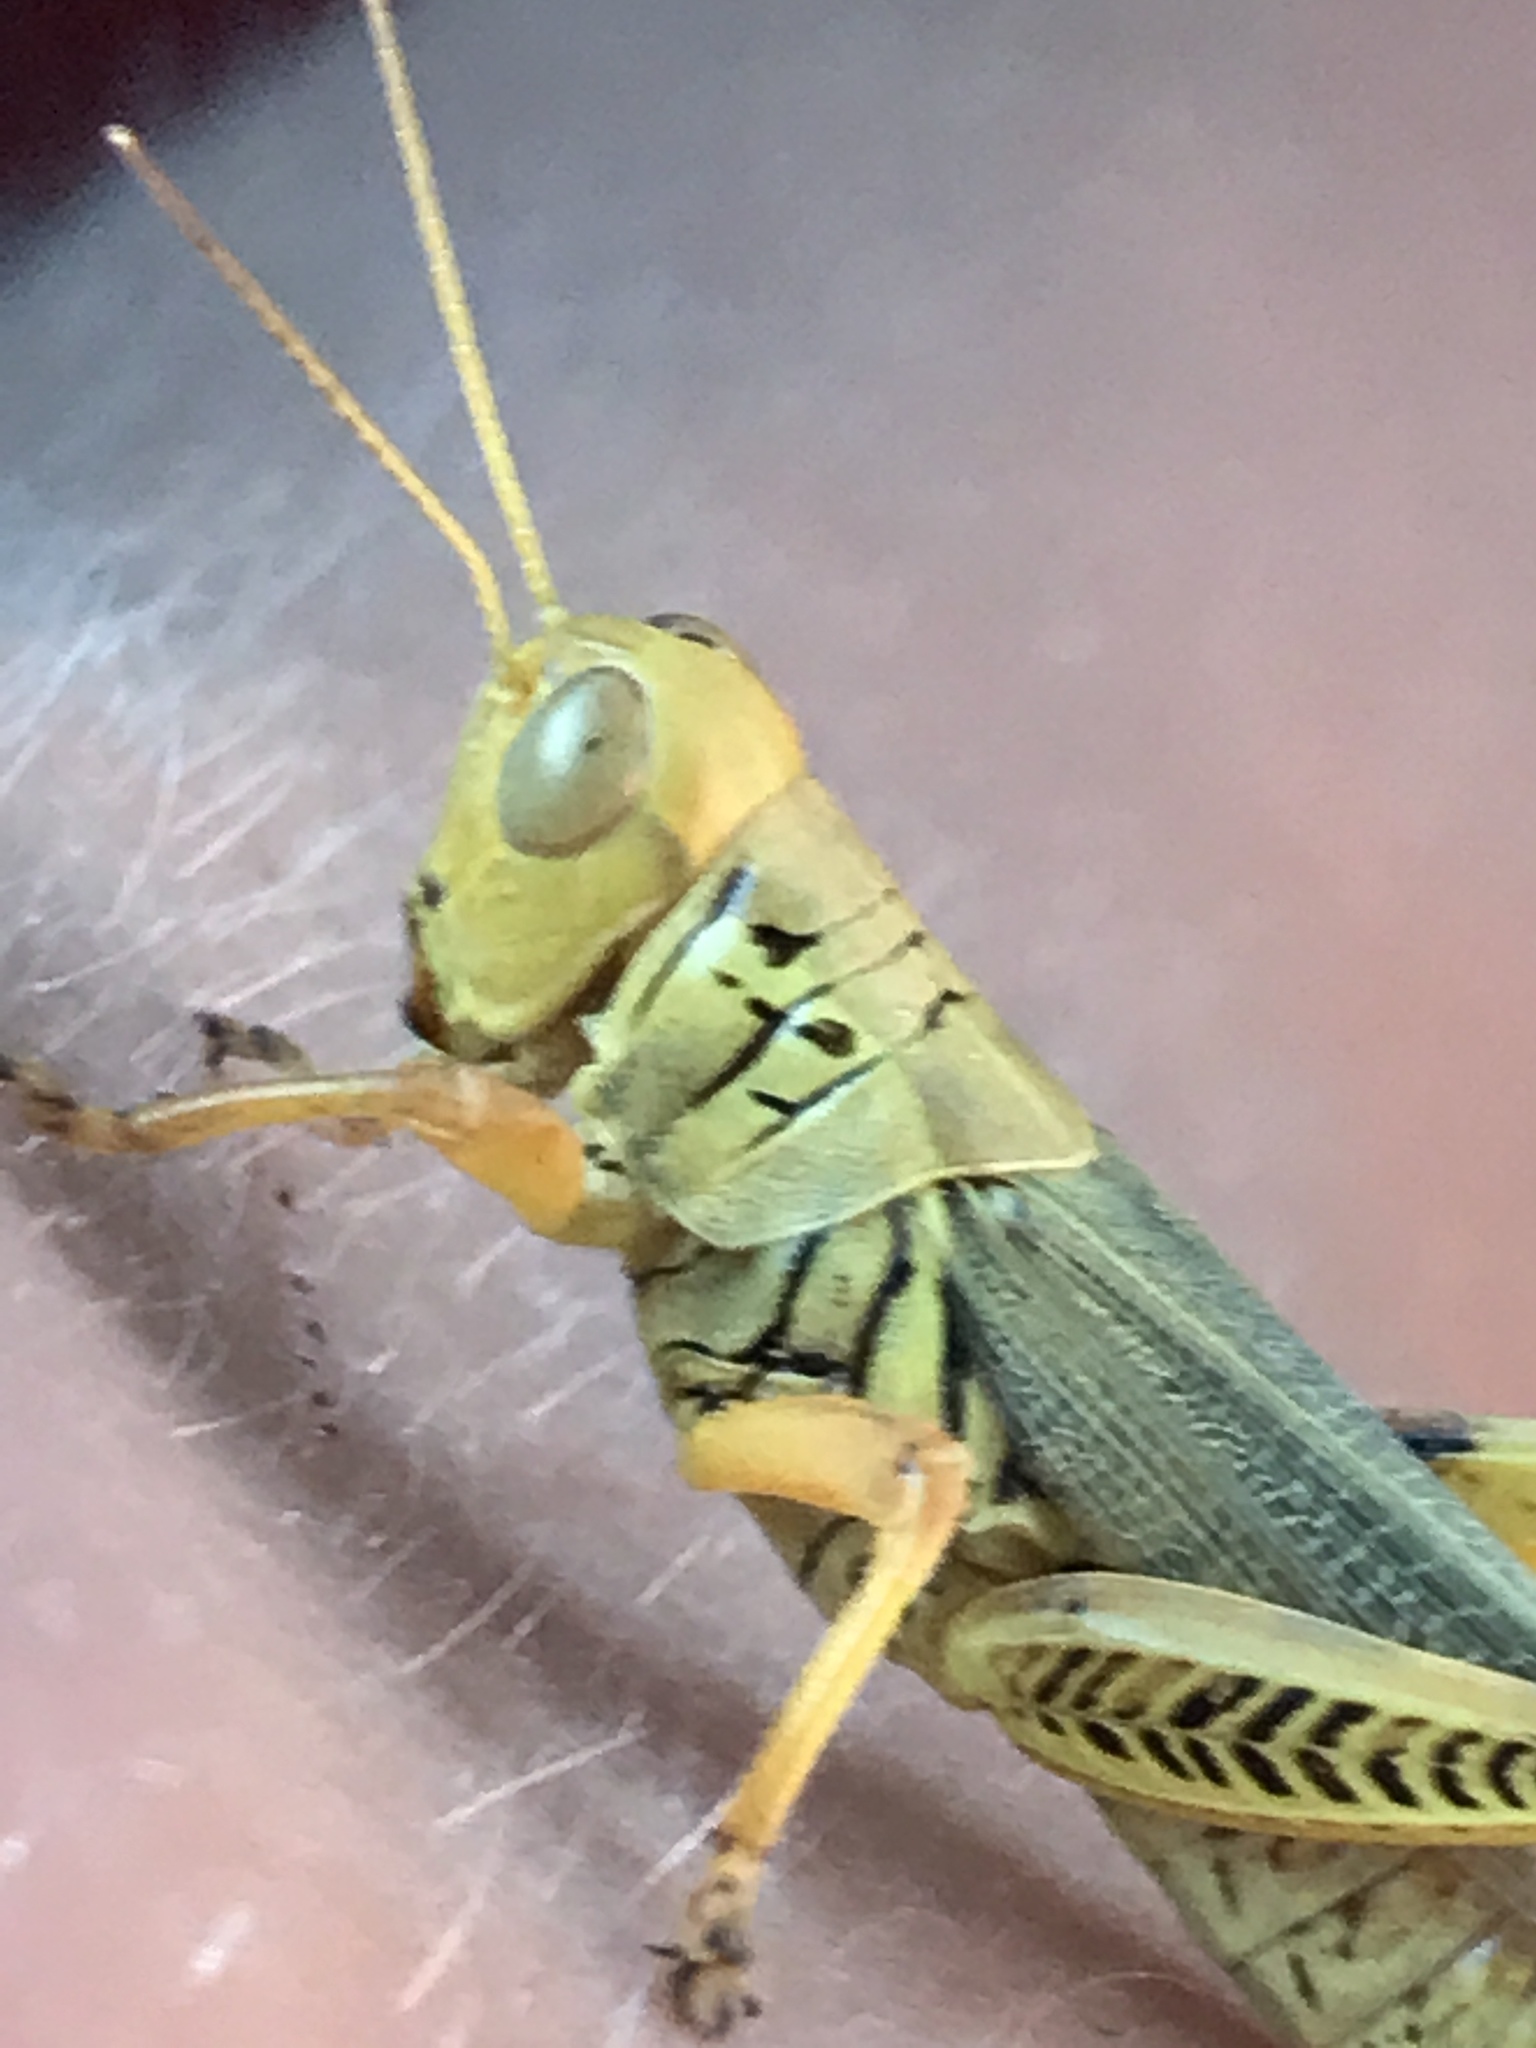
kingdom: Animalia
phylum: Arthropoda
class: Insecta
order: Orthoptera
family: Acrididae
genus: Melanoplus
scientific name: Melanoplus differentialis
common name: Differential grasshopper
